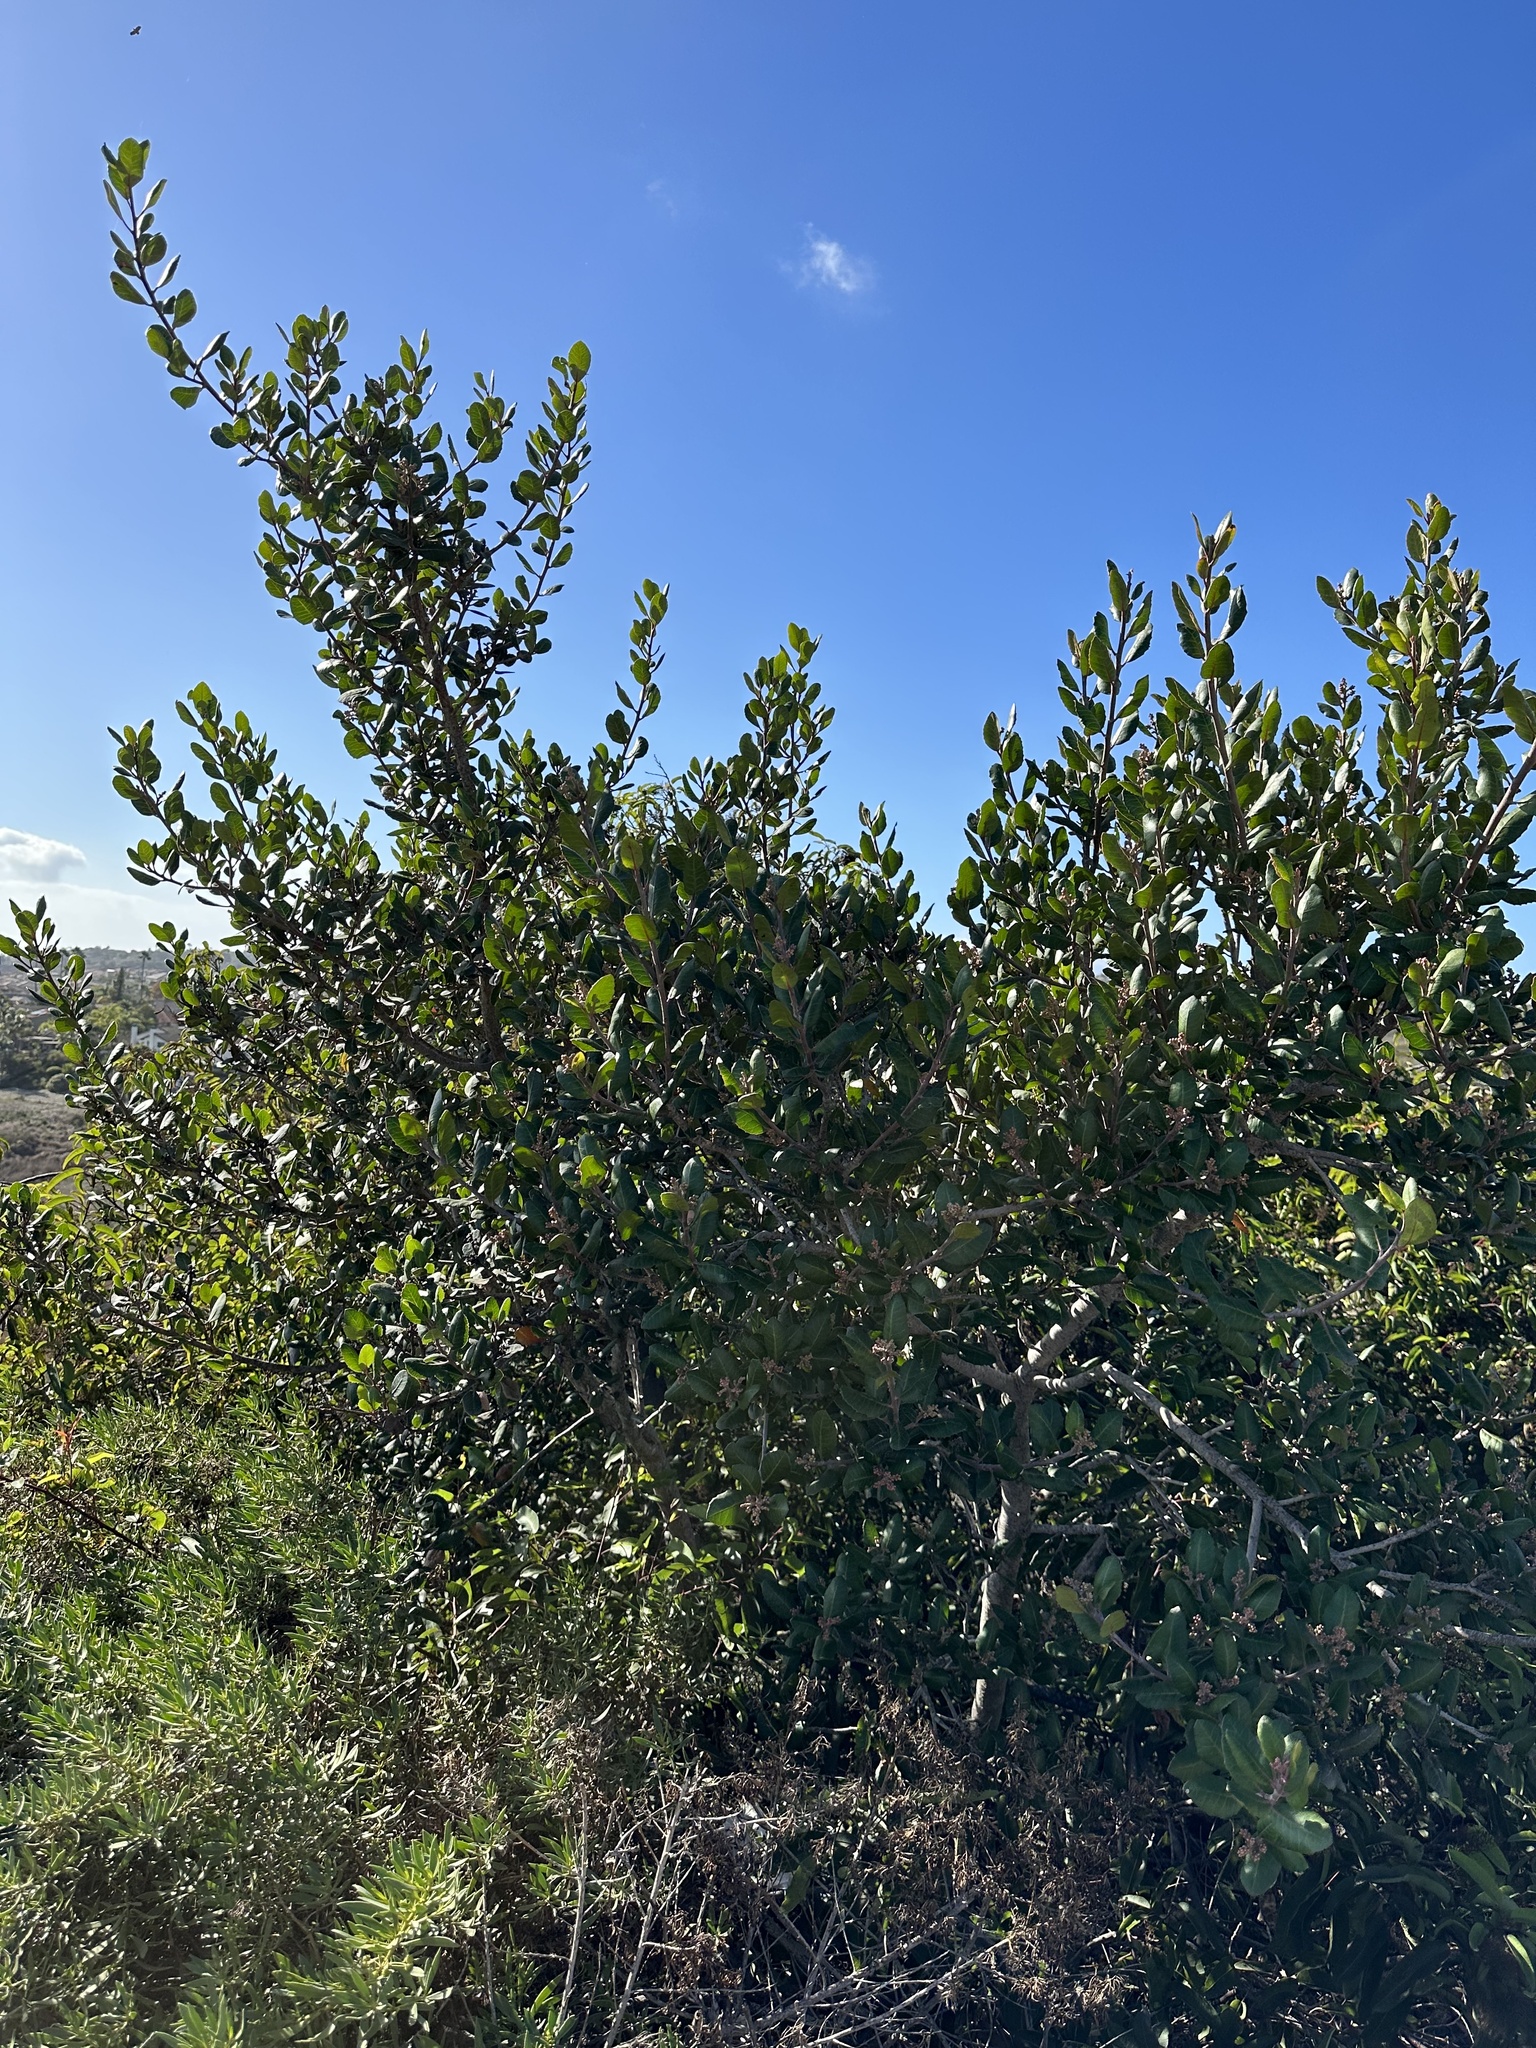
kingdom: Plantae
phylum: Tracheophyta
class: Magnoliopsida
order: Sapindales
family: Anacardiaceae
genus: Rhus
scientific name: Rhus integrifolia
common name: Lemonade sumac
